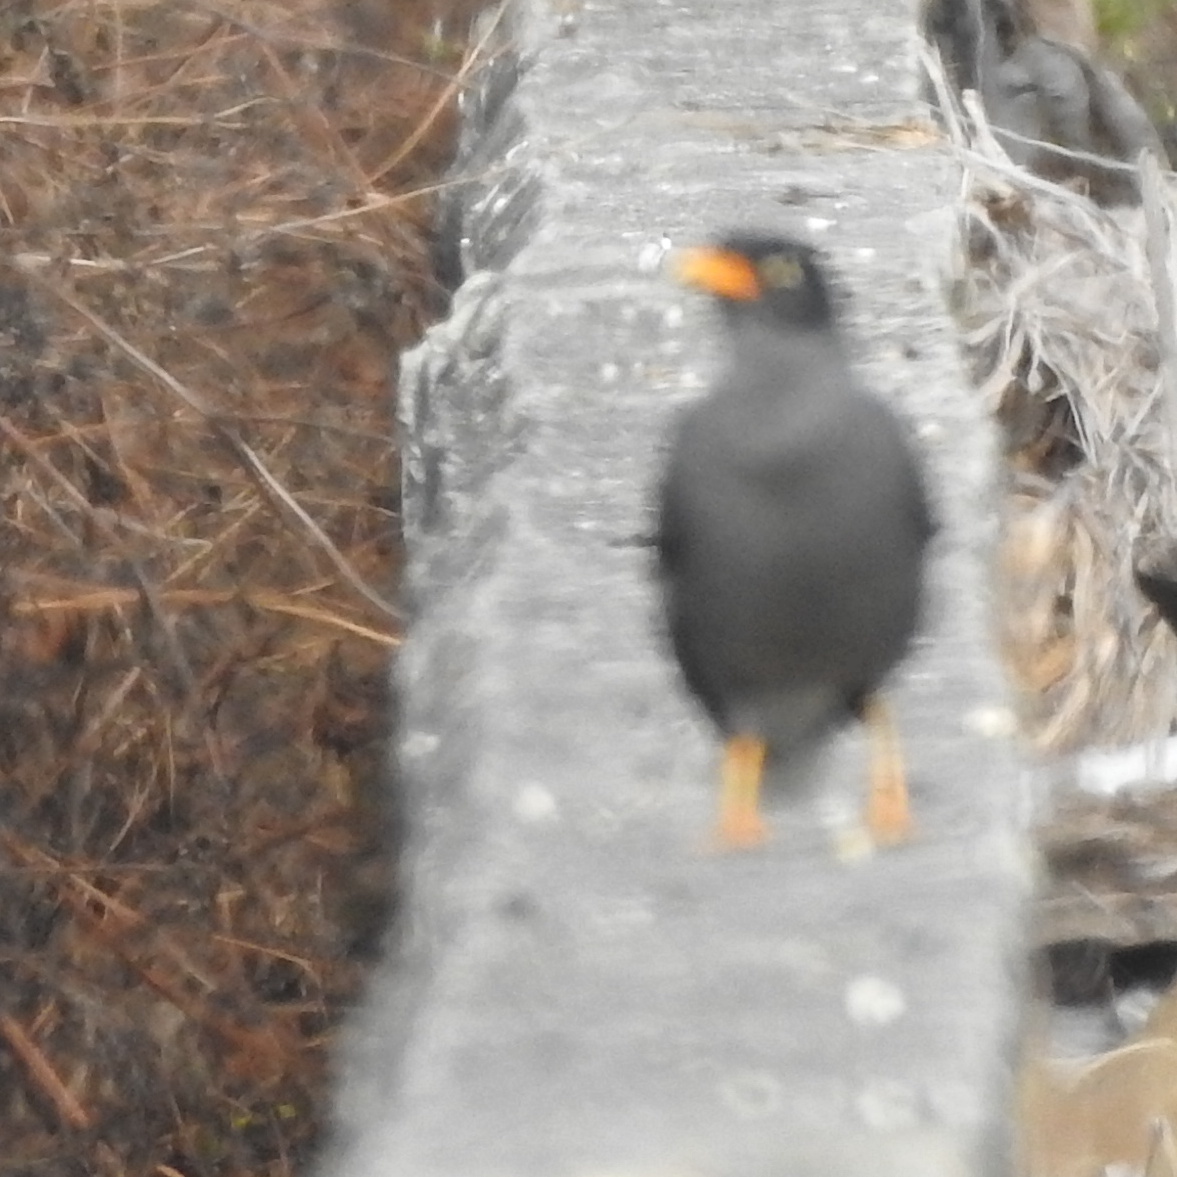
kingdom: Animalia
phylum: Chordata
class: Aves
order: Passeriformes
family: Sturnidae
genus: Acridotheres
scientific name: Acridotheres javanicus
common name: Javan myna
